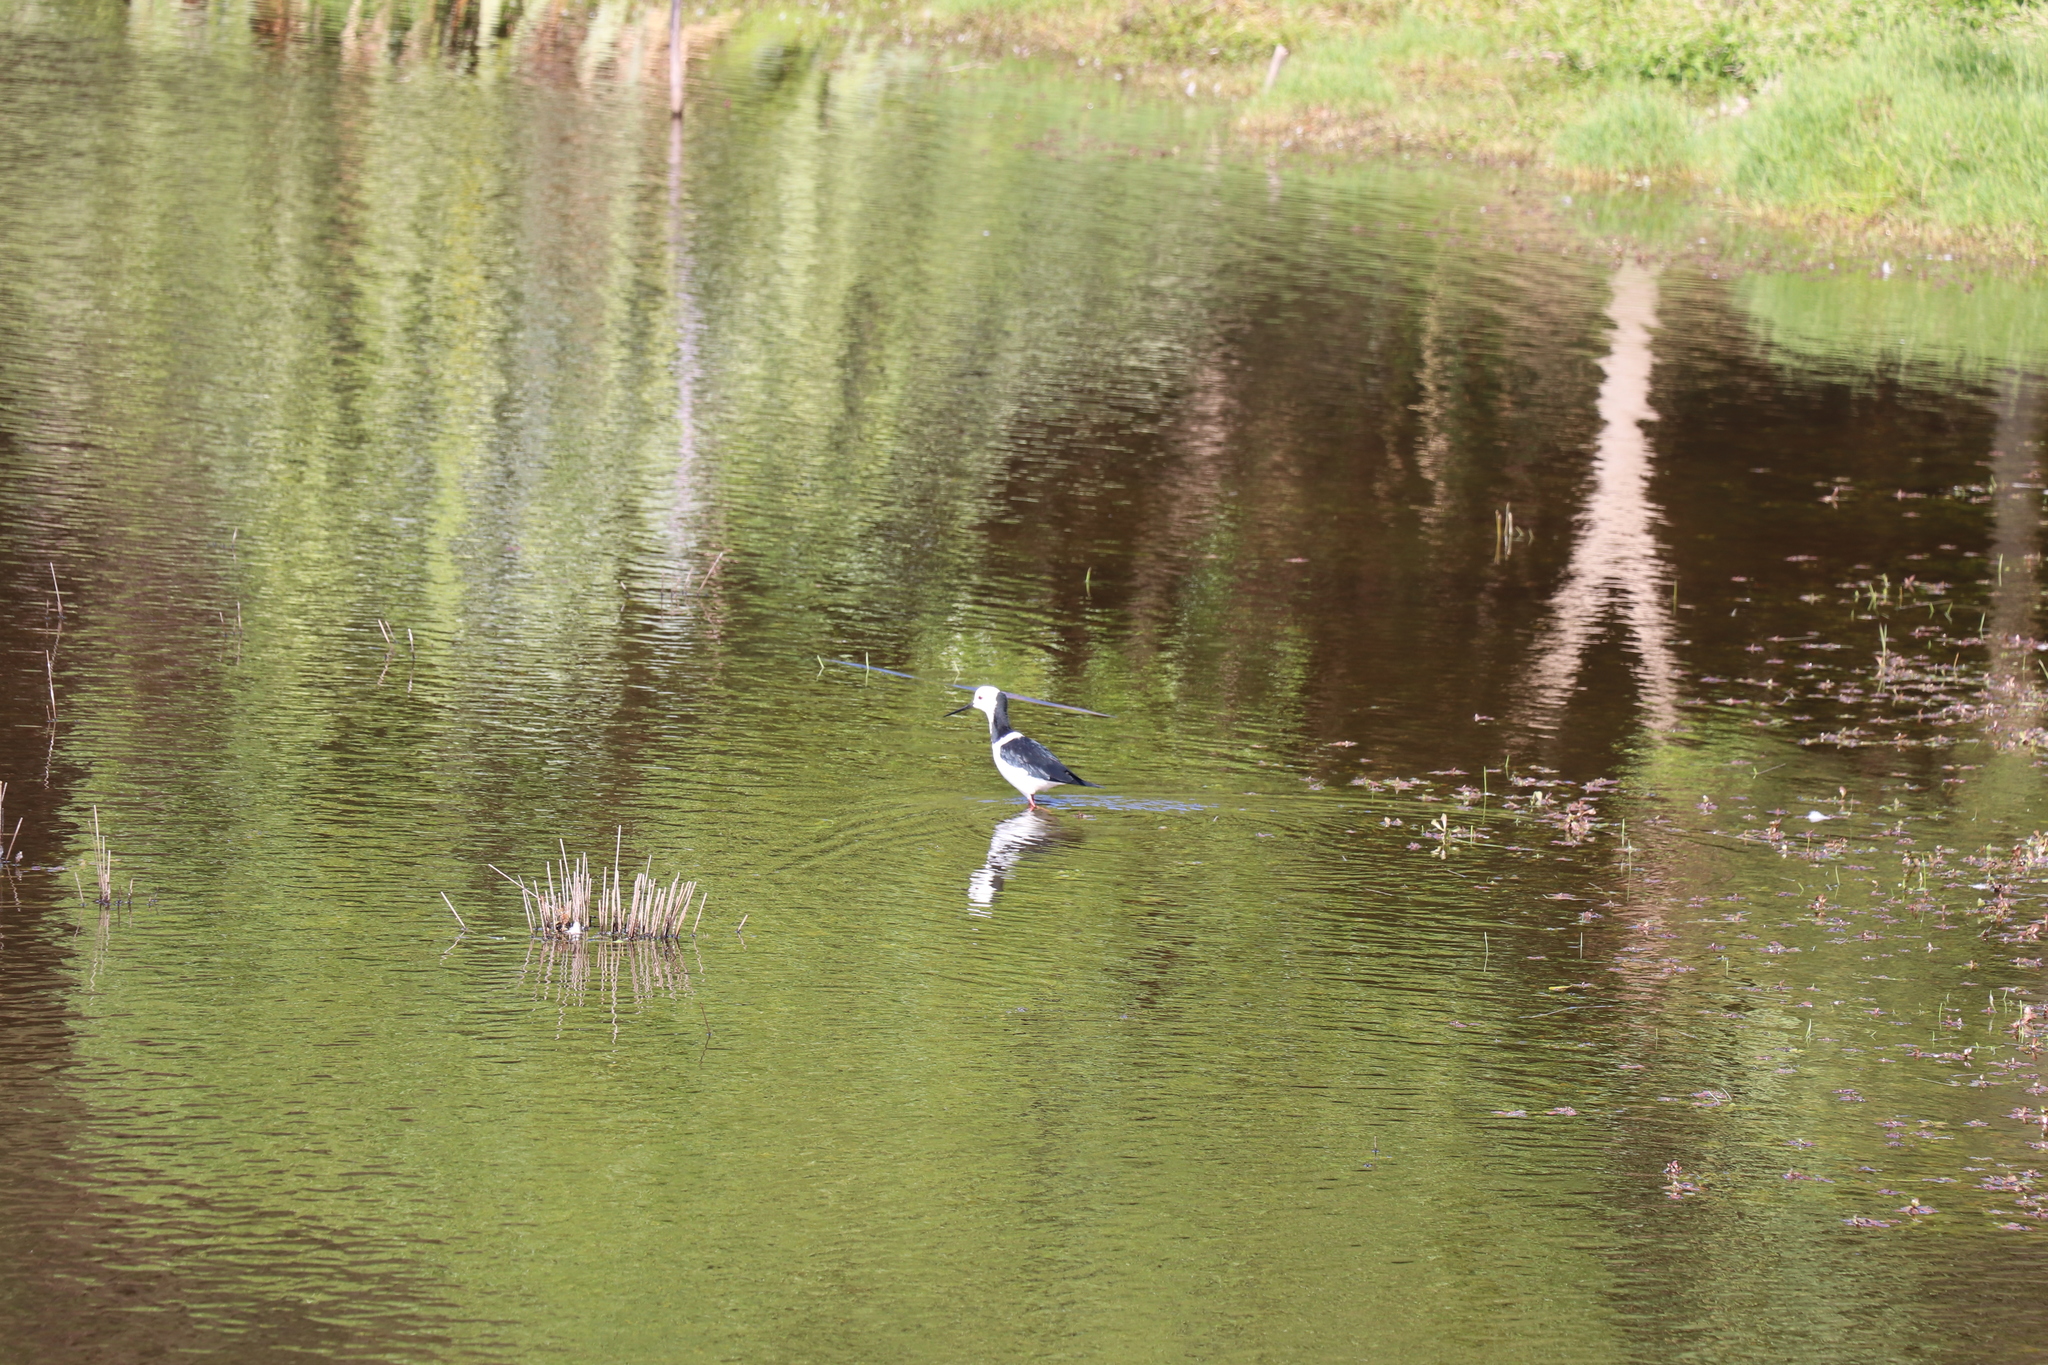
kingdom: Animalia
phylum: Chordata
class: Aves
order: Charadriiformes
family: Recurvirostridae
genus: Himantopus
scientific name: Himantopus leucocephalus
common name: White-headed stilt
